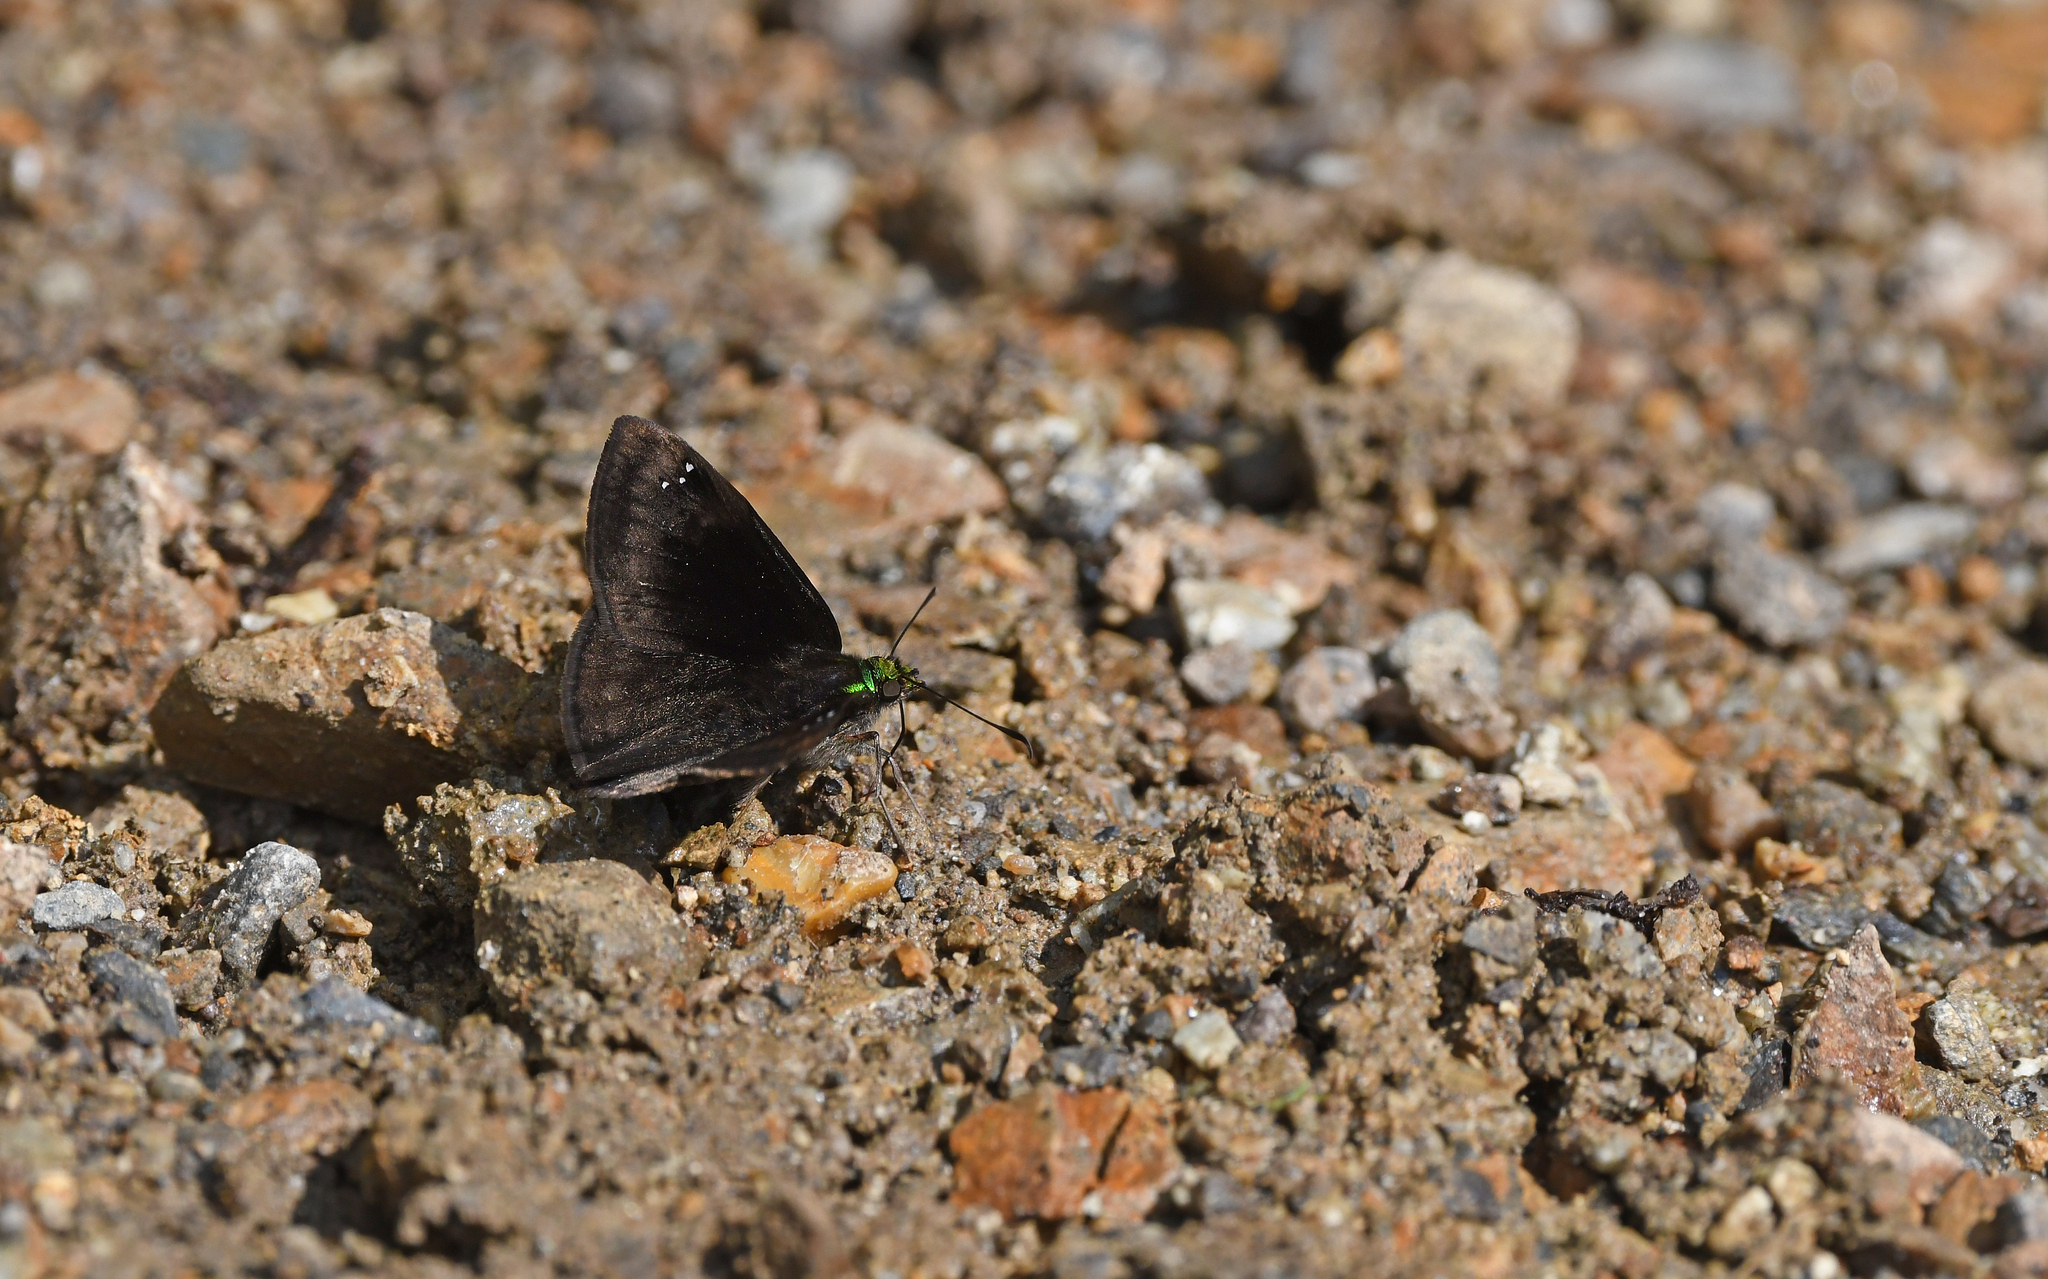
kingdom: Animalia
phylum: Arthropoda
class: Insecta
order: Lepidoptera
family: Hesperiidae
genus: Gorgopas
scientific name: Gorgopas chlorocephala
